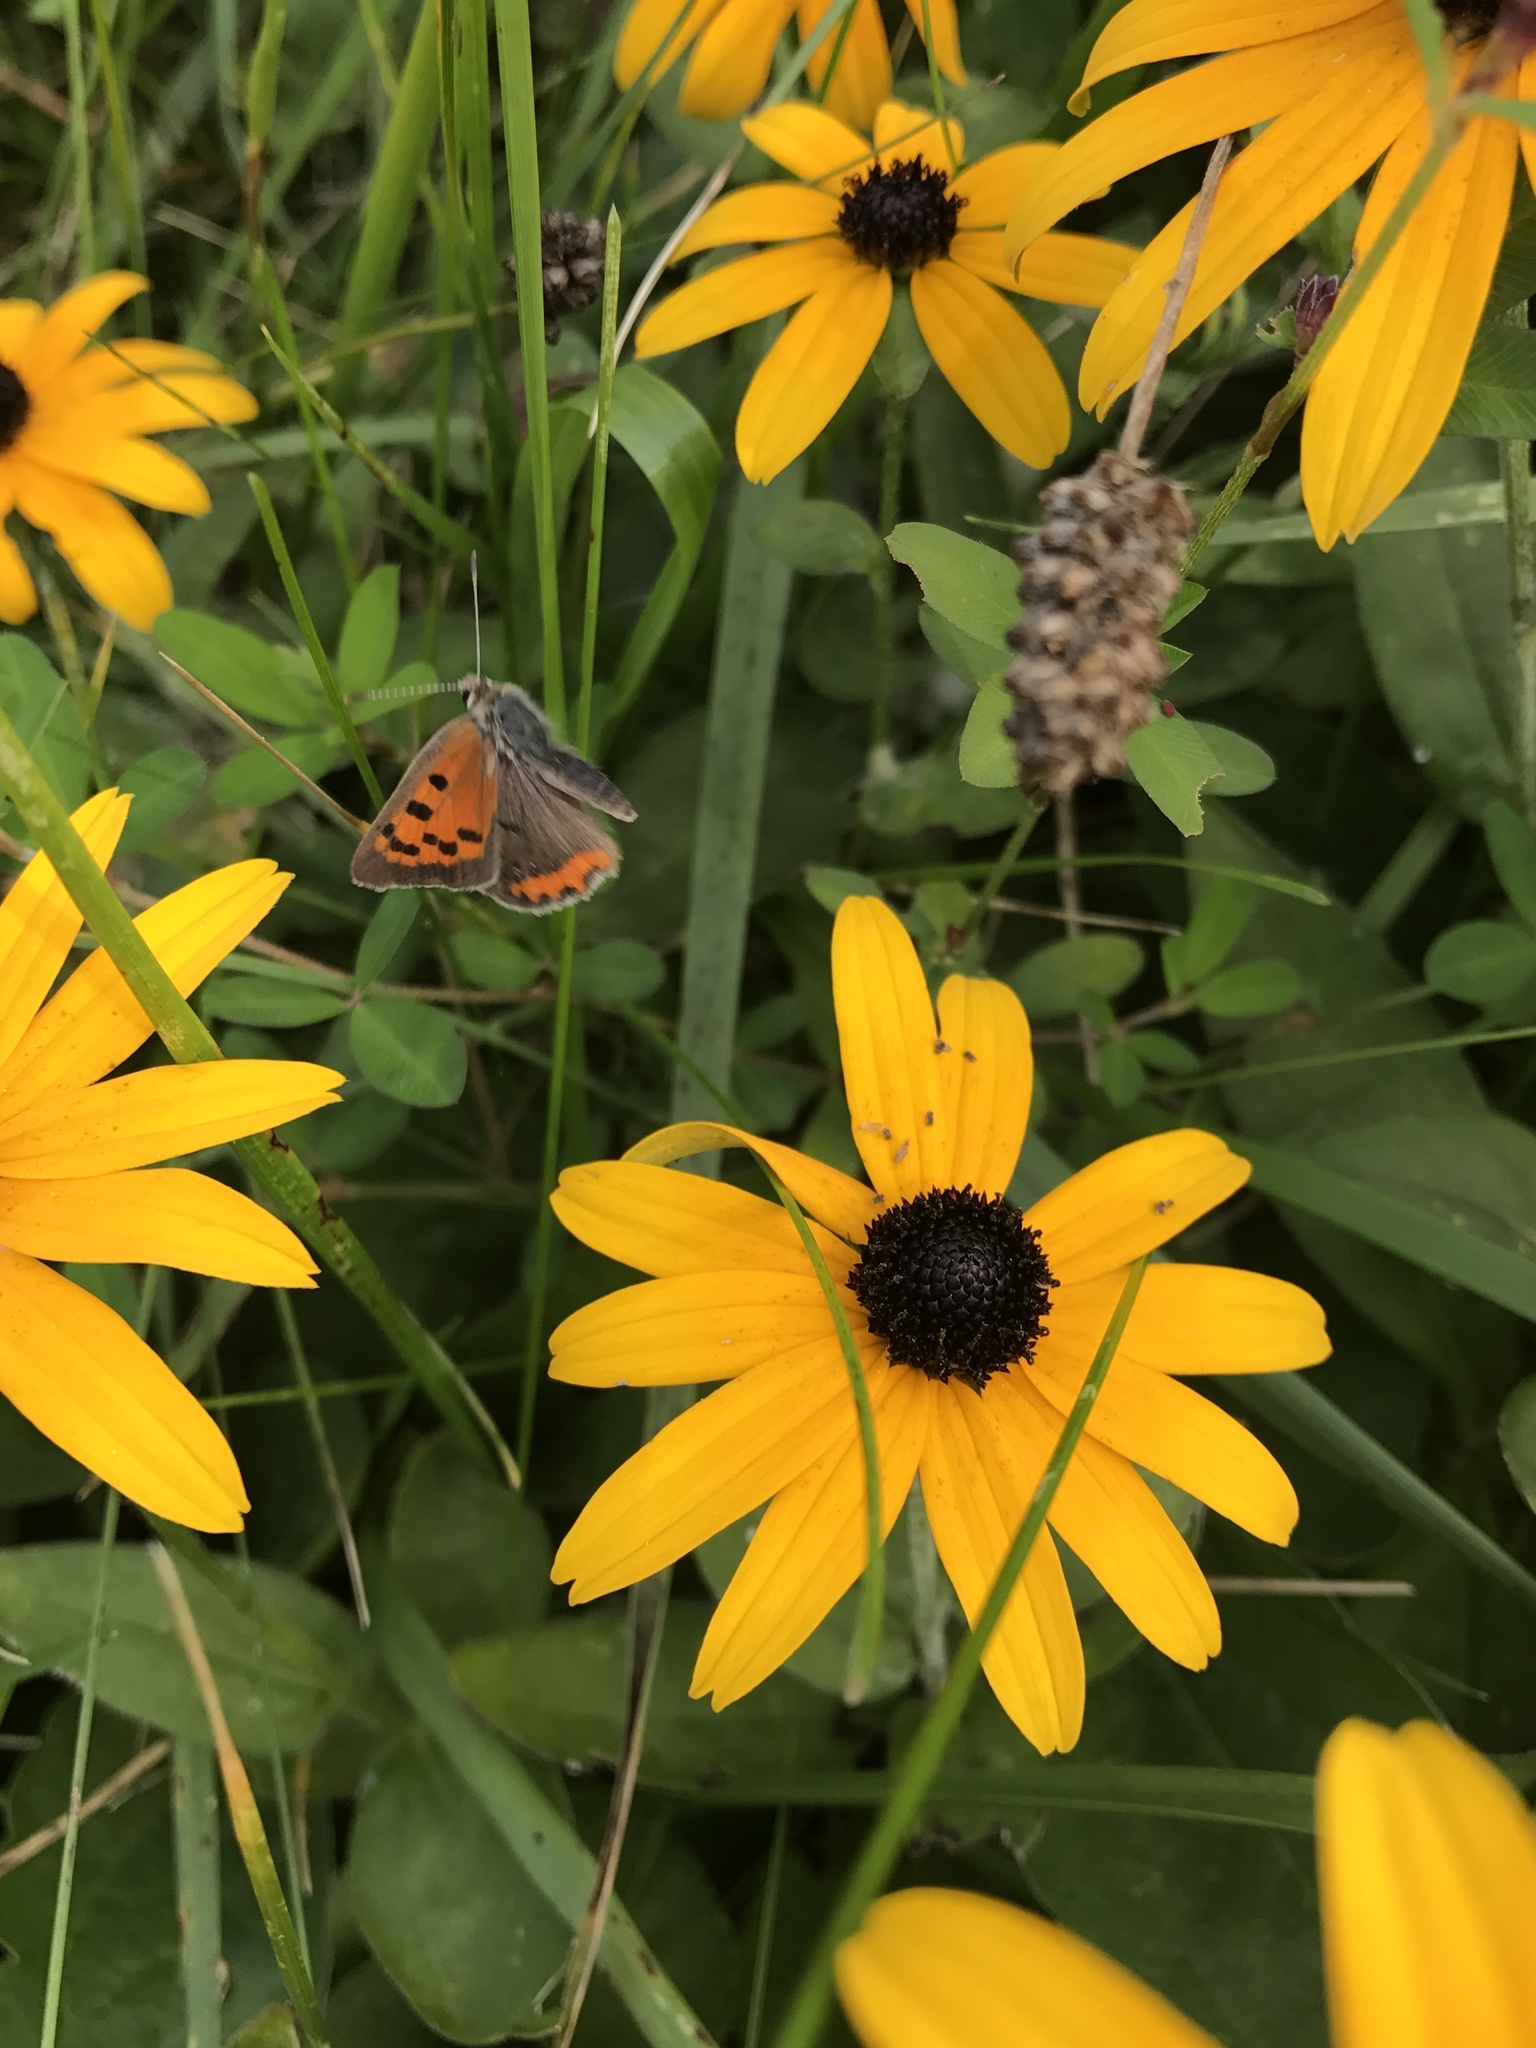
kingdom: Animalia
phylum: Arthropoda
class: Insecta
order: Lepidoptera
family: Lycaenidae
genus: Lycaena
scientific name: Lycaena hypophlaeas
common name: American copper
